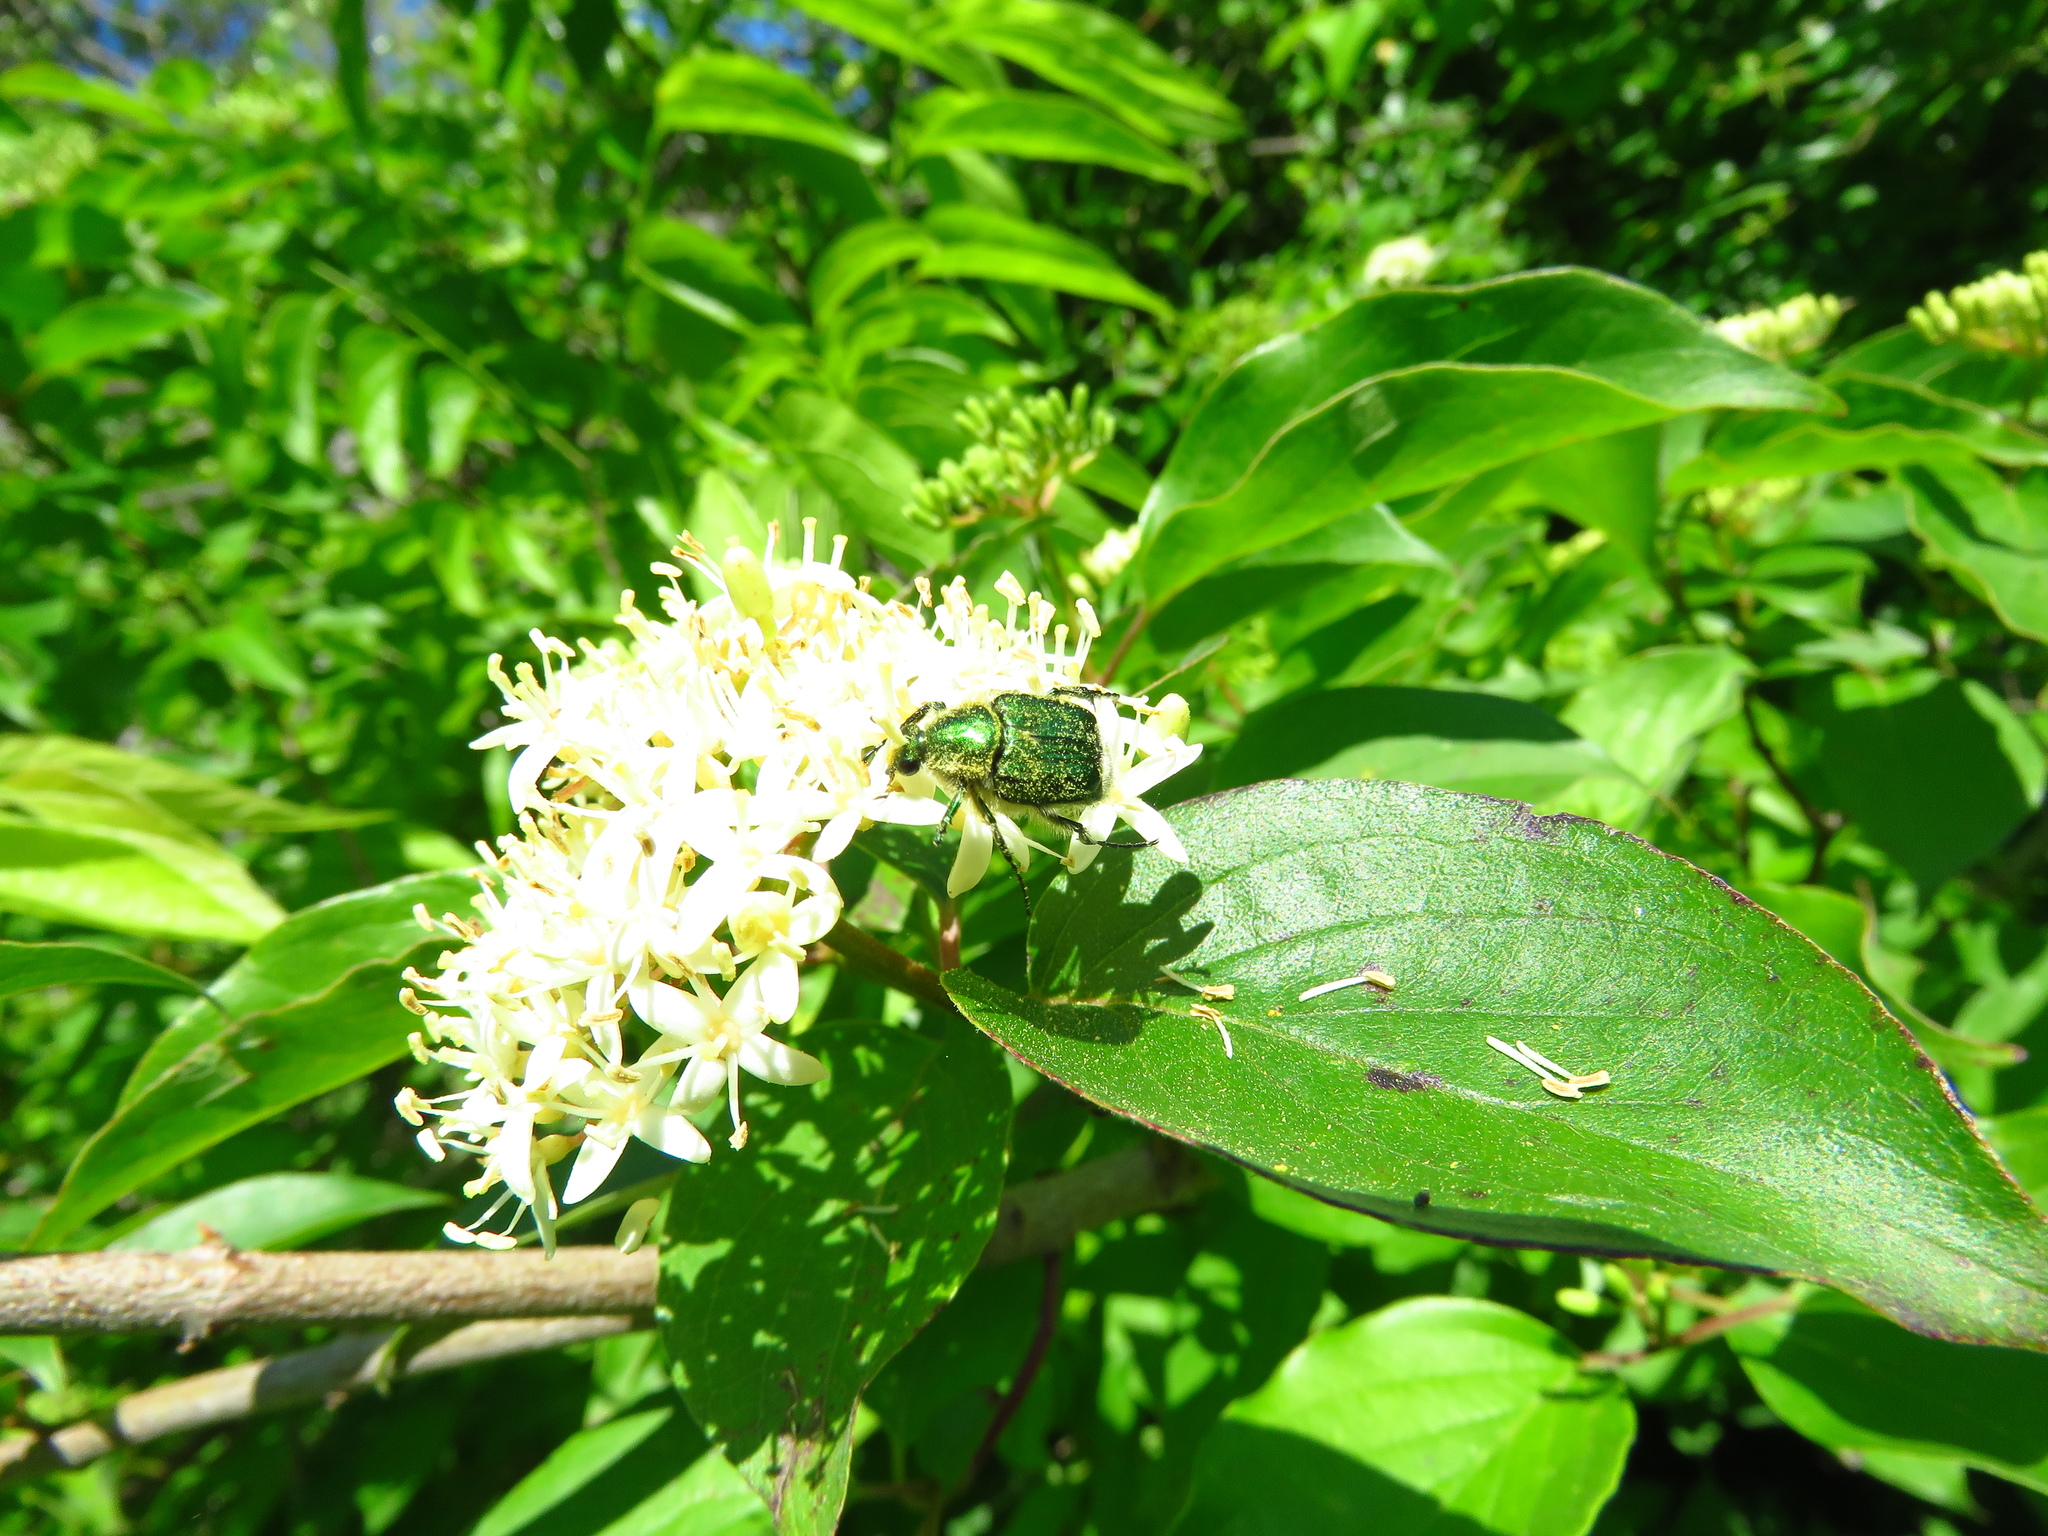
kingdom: Plantae
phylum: Tracheophyta
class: Magnoliopsida
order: Cornales
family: Cornaceae
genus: Cornus
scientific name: Cornus drummondii
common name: Rough-leaf dogwood
